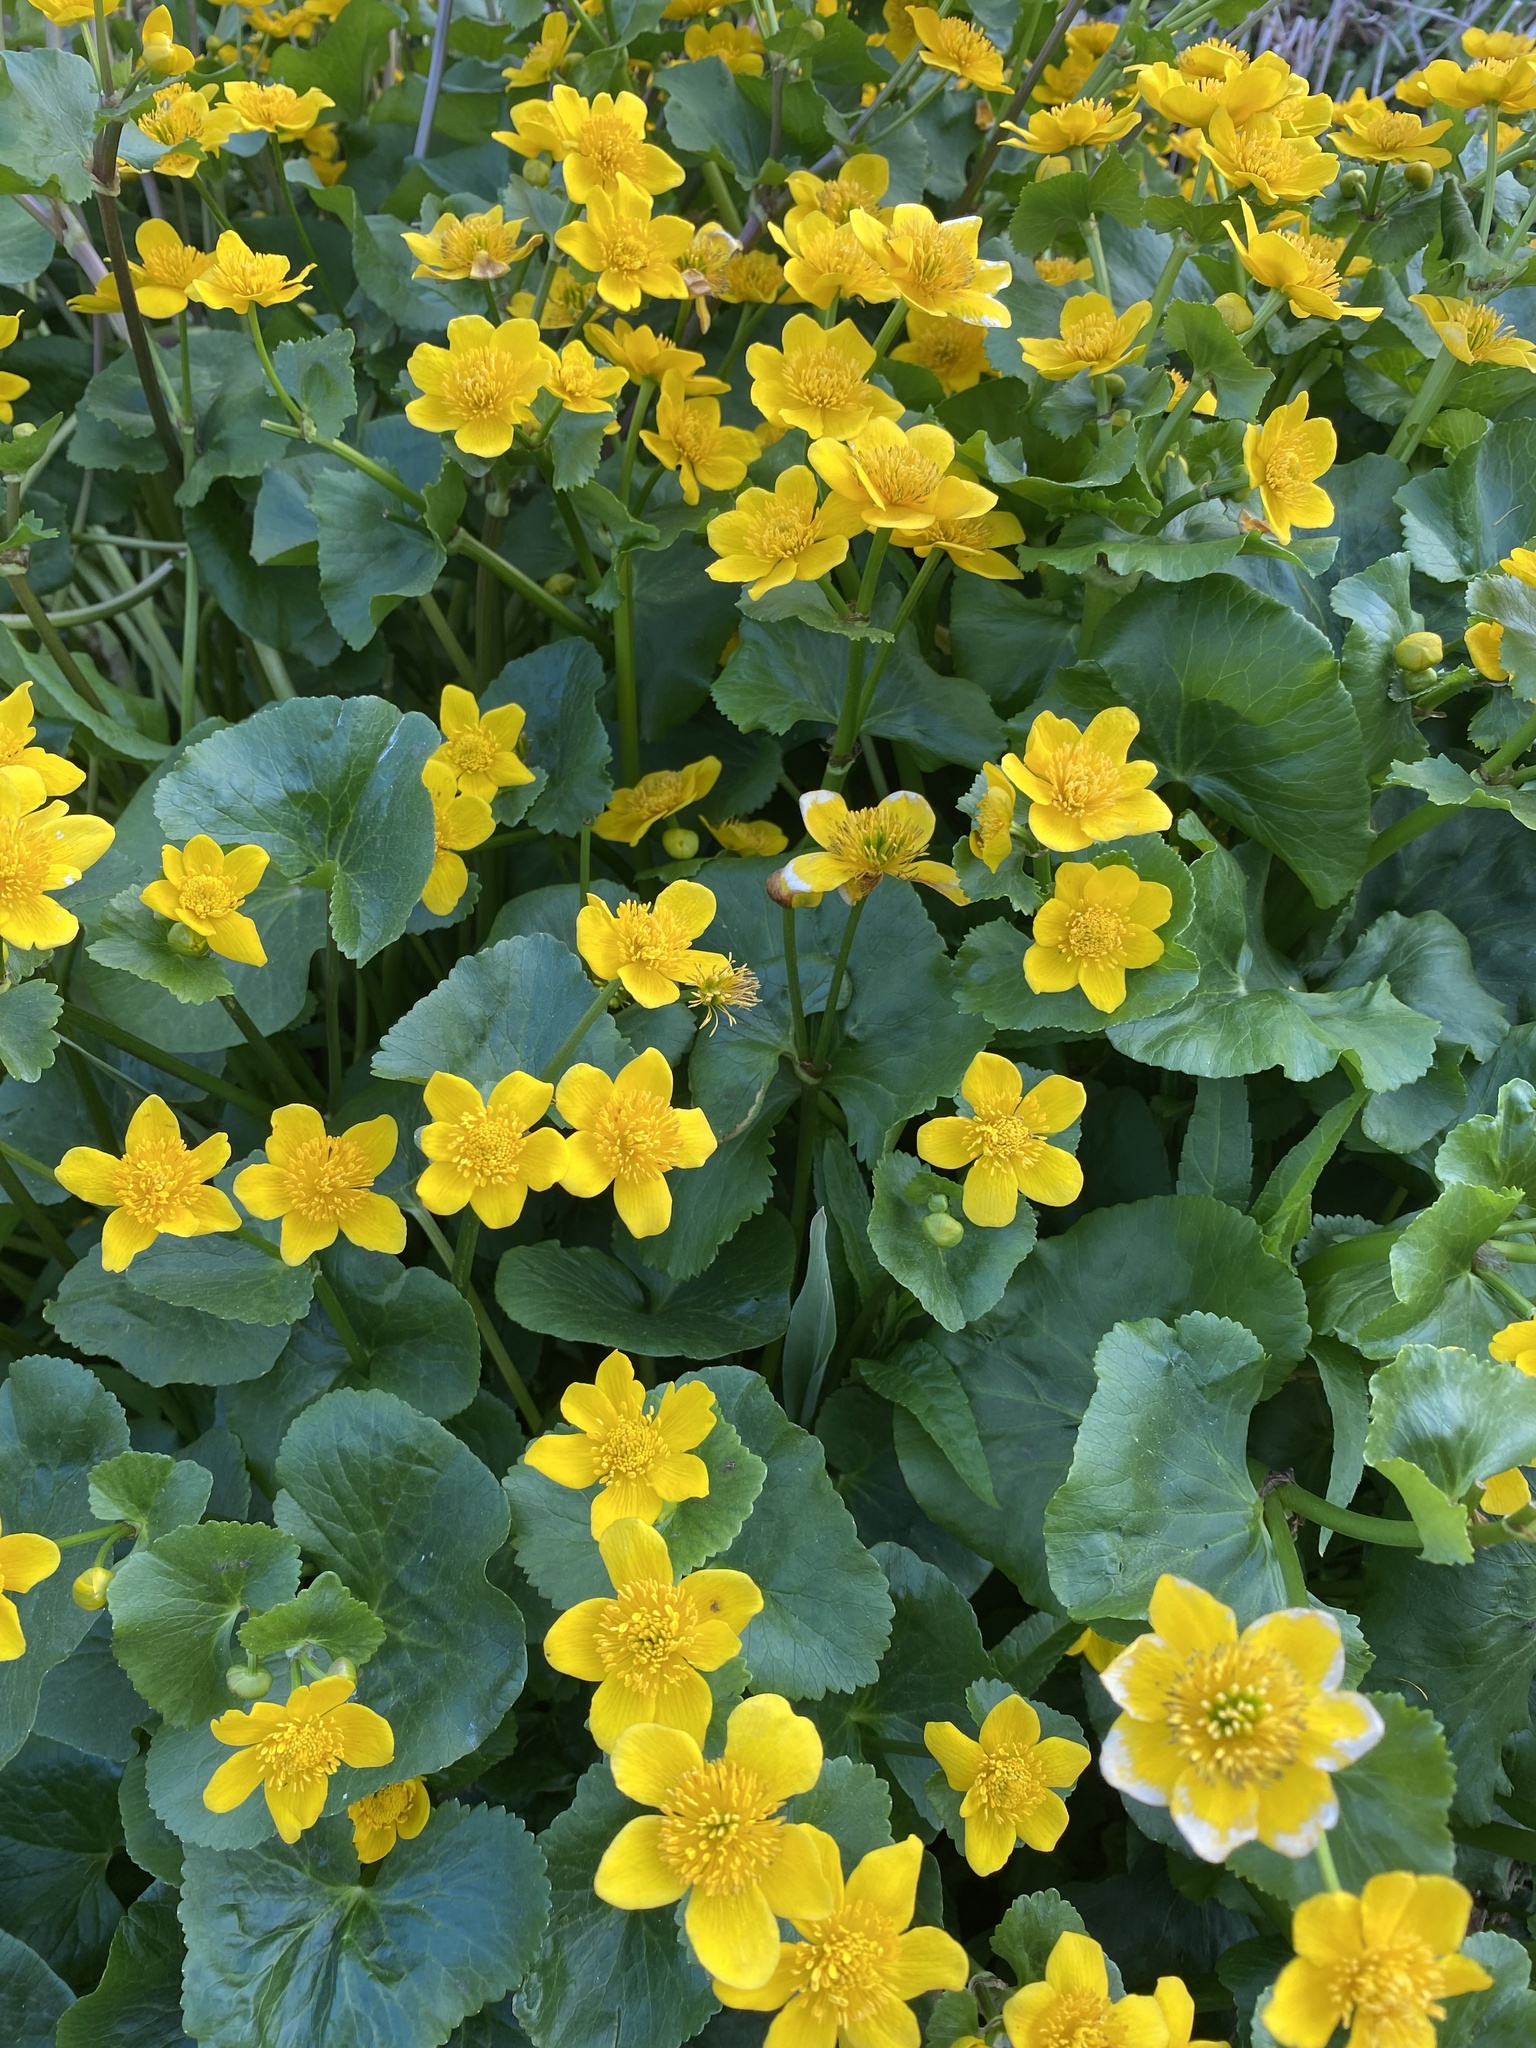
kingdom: Plantae
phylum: Tracheophyta
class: Magnoliopsida
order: Ranunculales
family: Ranunculaceae
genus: Caltha
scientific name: Caltha palustris
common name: Marsh marigold
